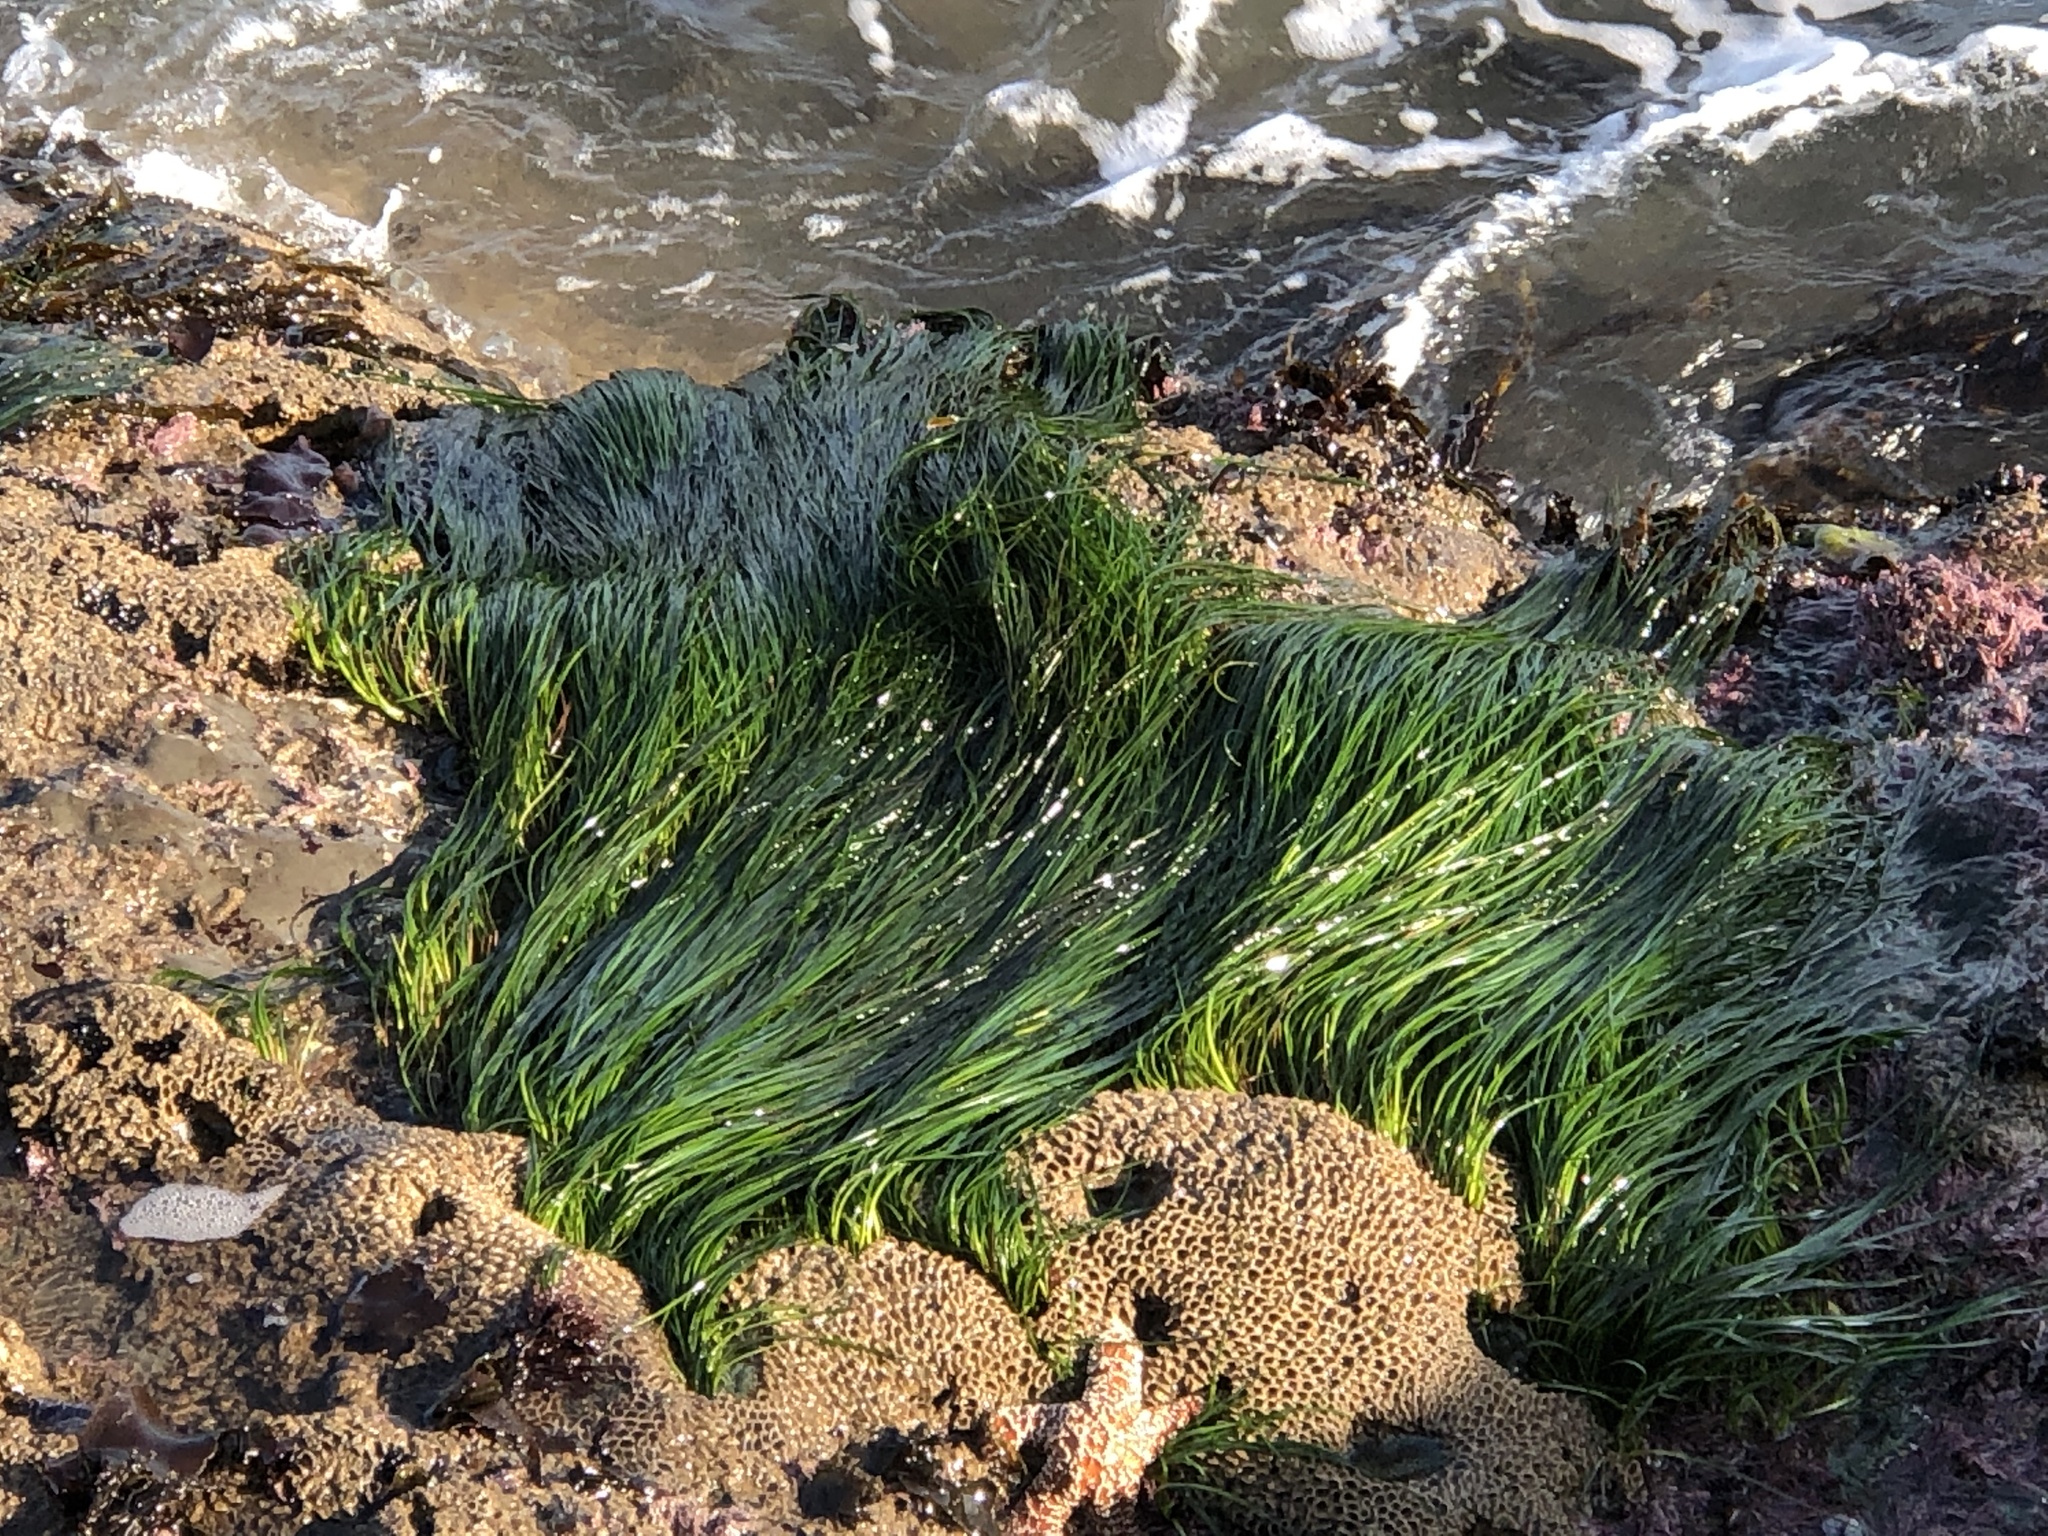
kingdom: Plantae
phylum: Tracheophyta
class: Liliopsida
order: Alismatales
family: Zosteraceae
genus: Phyllospadix
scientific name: Phyllospadix torreyi
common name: Surfgrass
